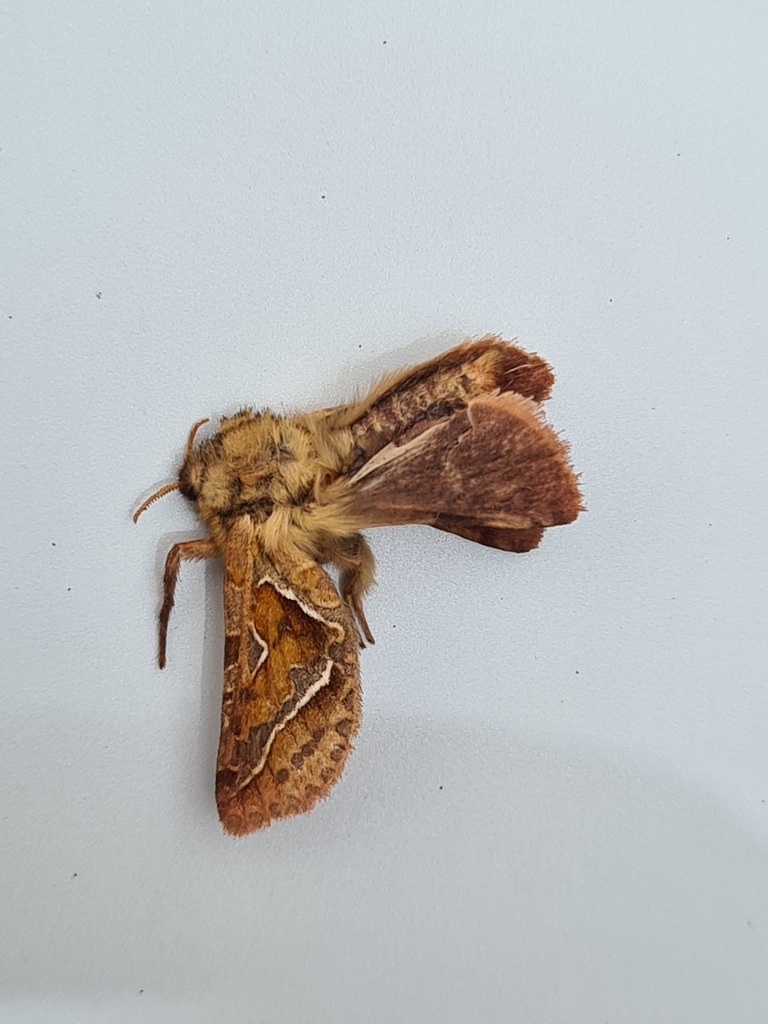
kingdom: Animalia
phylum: Arthropoda
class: Insecta
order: Lepidoptera
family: Hepialidae
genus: Triodia
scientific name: Triodia sylvina
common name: Orange swift
